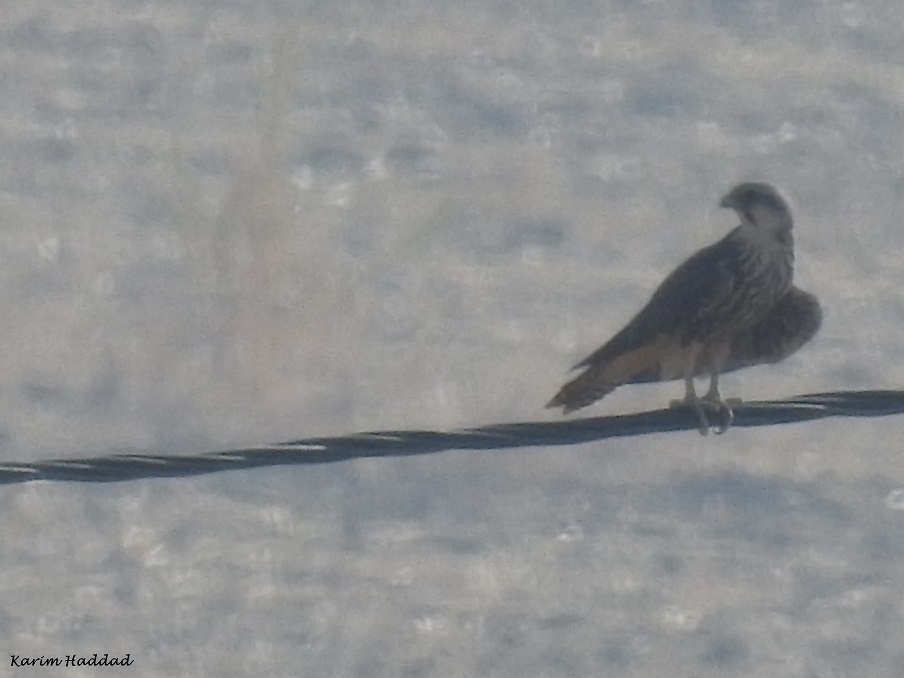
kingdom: Animalia
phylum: Chordata
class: Aves
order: Falconiformes
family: Falconidae
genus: Falco
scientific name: Falco biarmicus
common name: Lanner falcon
